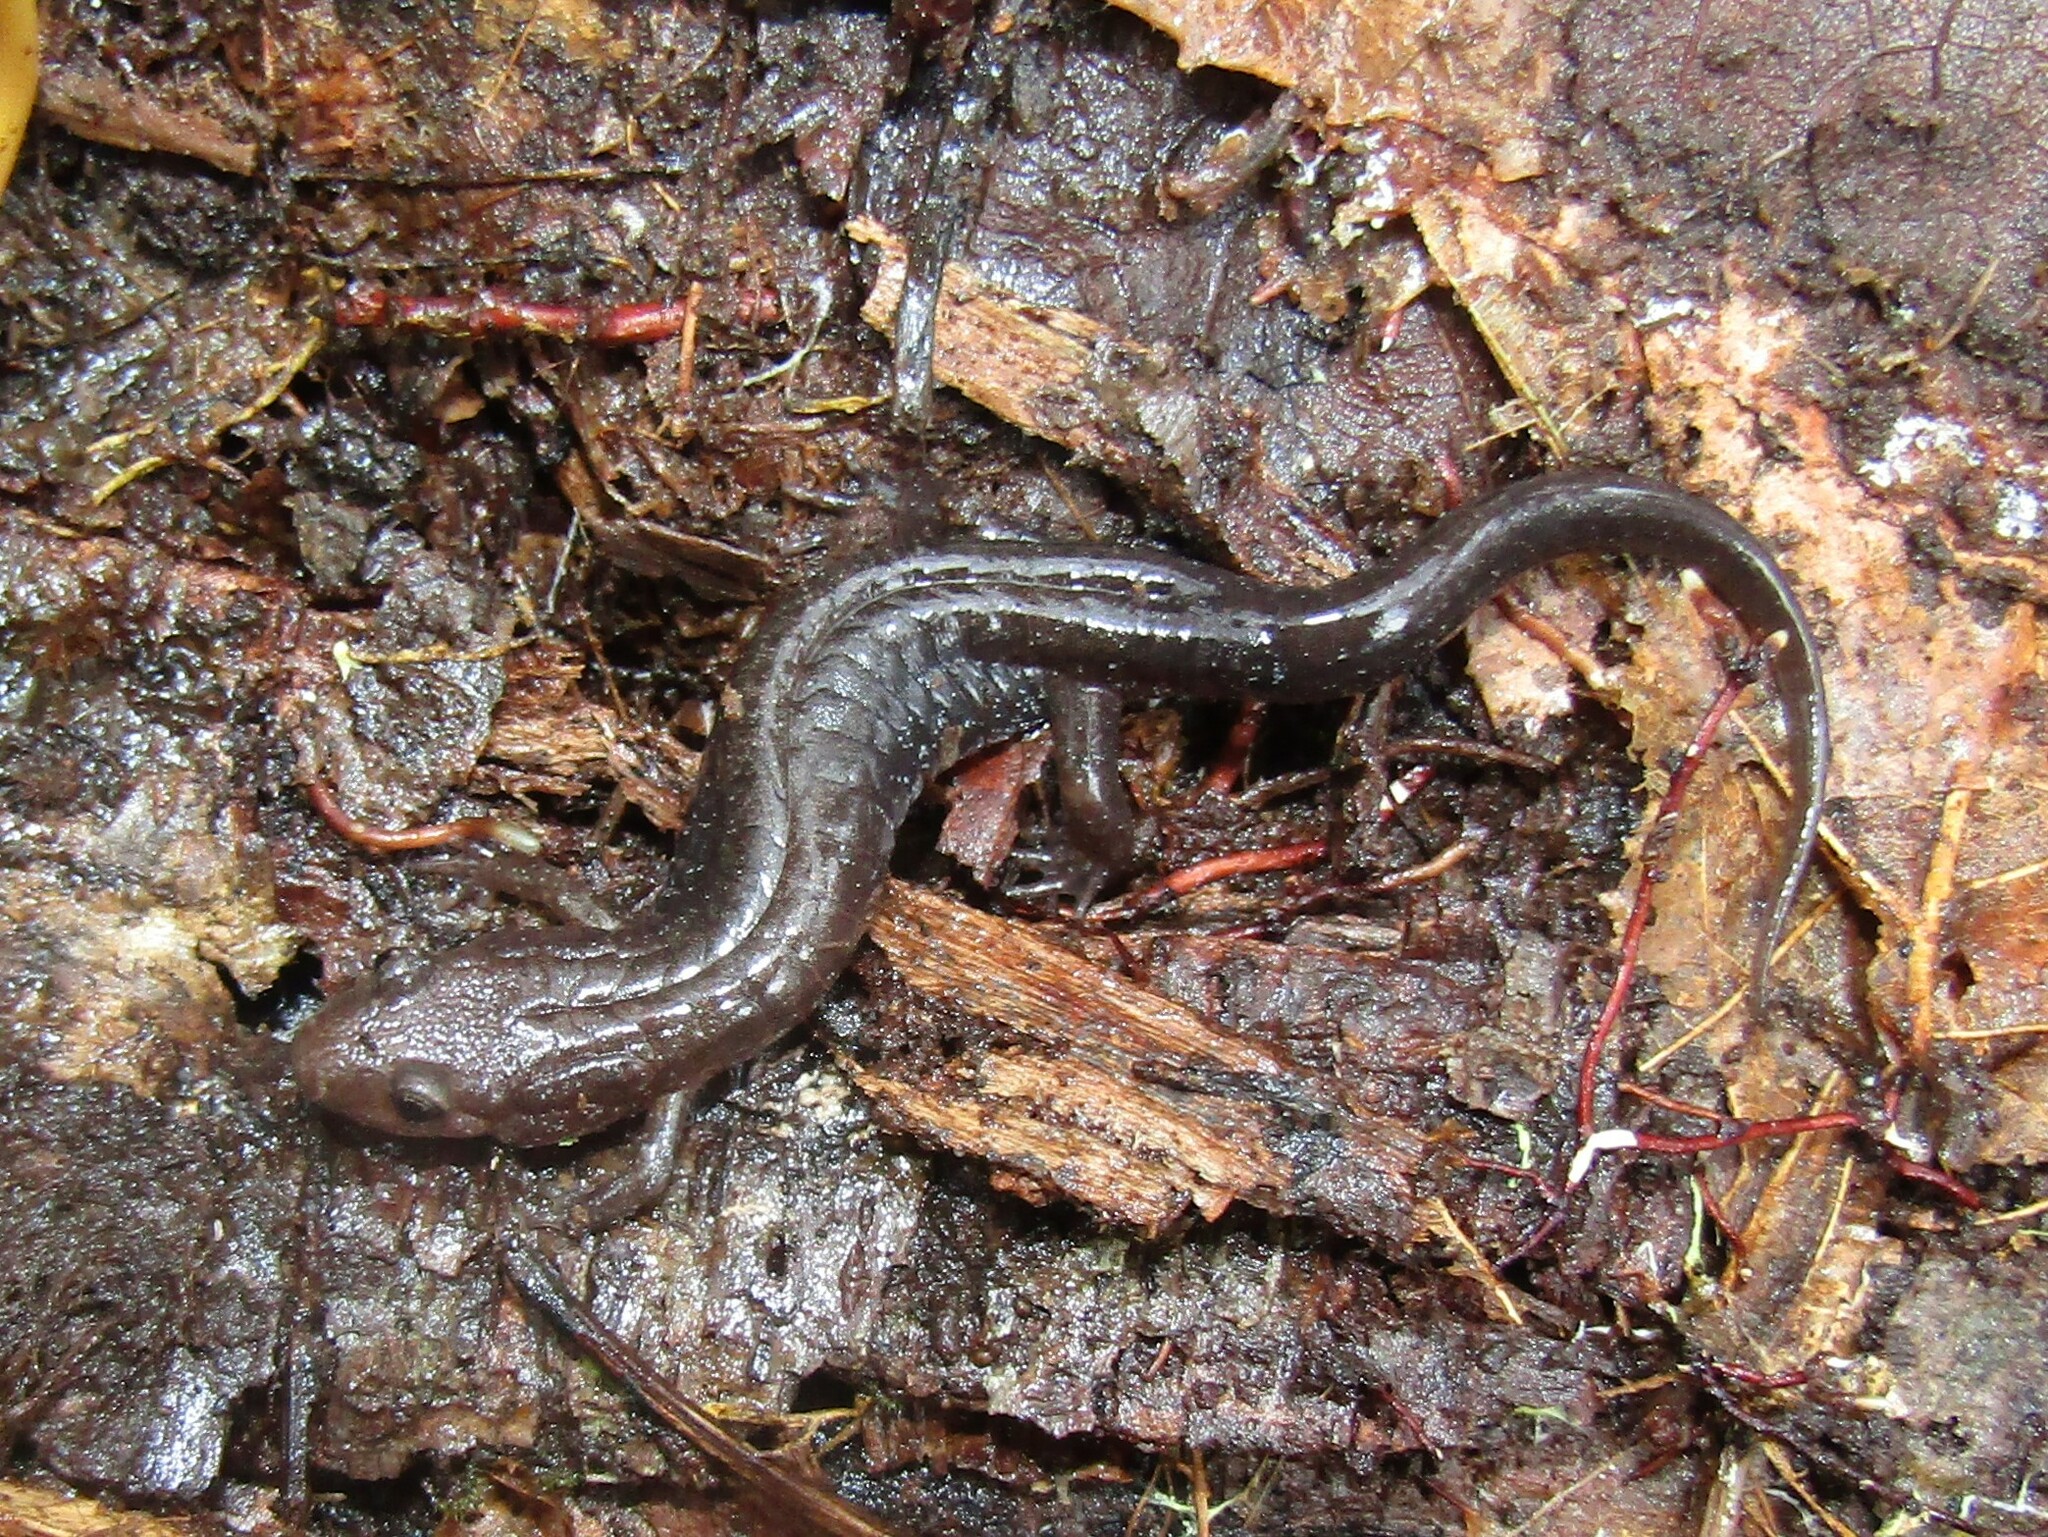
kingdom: Animalia
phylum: Chordata
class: Amphibia
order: Caudata
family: Plethodontidae
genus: Desmognathus
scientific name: Desmognathus ochrophaeus
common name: Allegheny mountain dusky salamander
